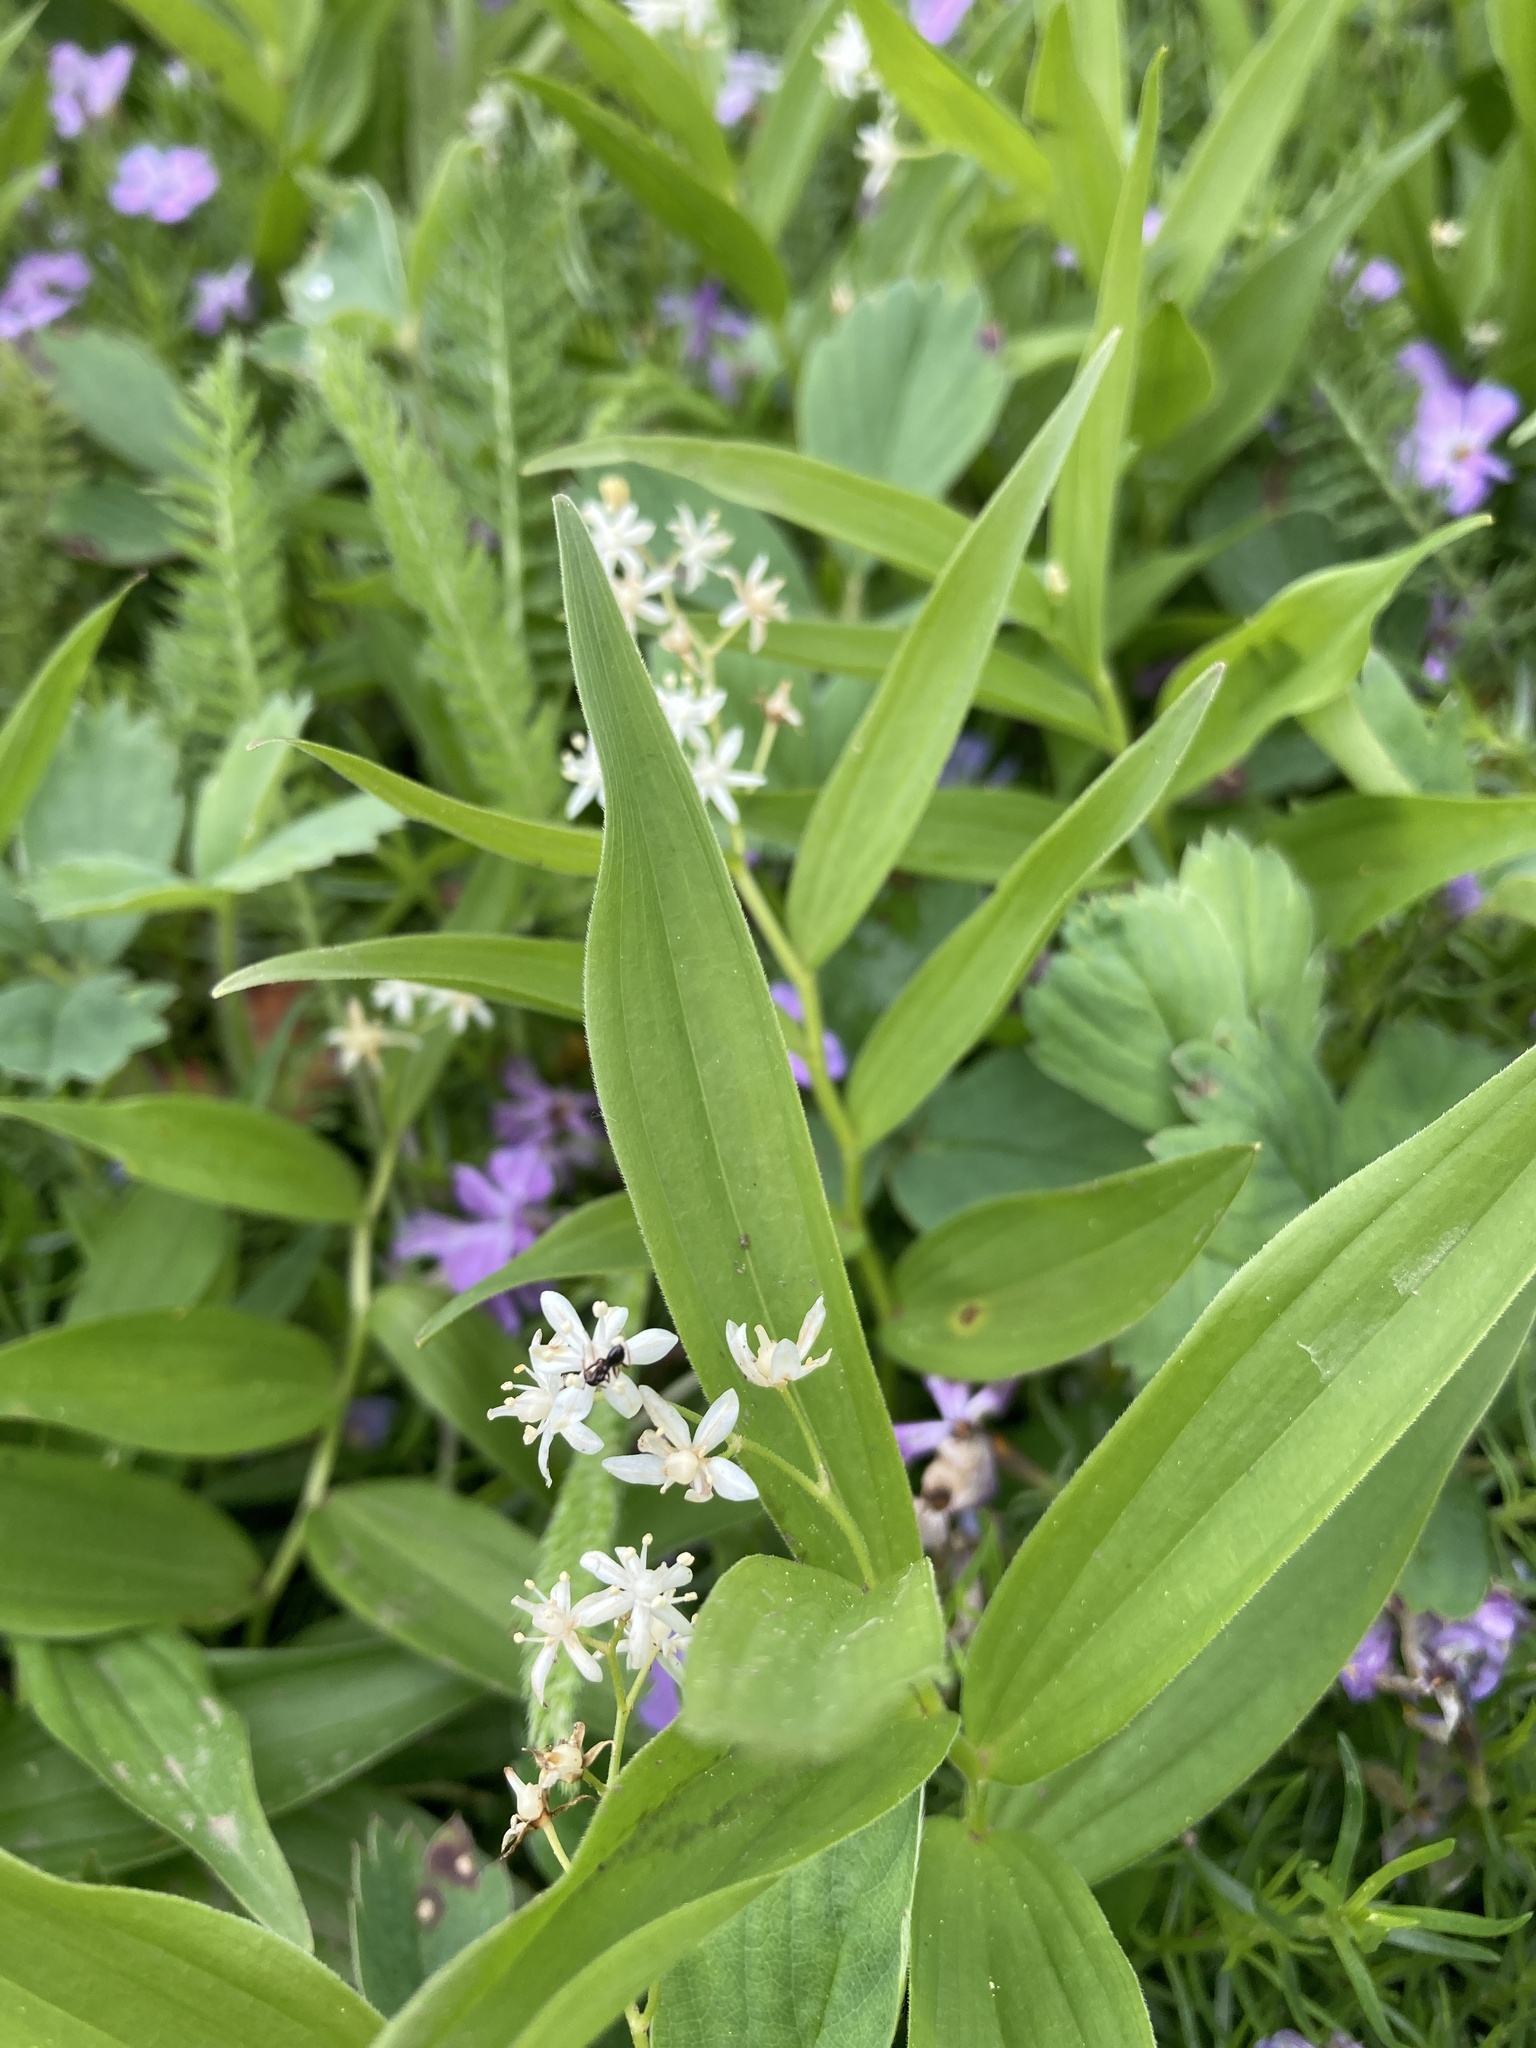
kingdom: Plantae
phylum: Tracheophyta
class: Liliopsida
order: Asparagales
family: Asparagaceae
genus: Maianthemum
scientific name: Maianthemum stellatum
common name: Little false solomon's seal
